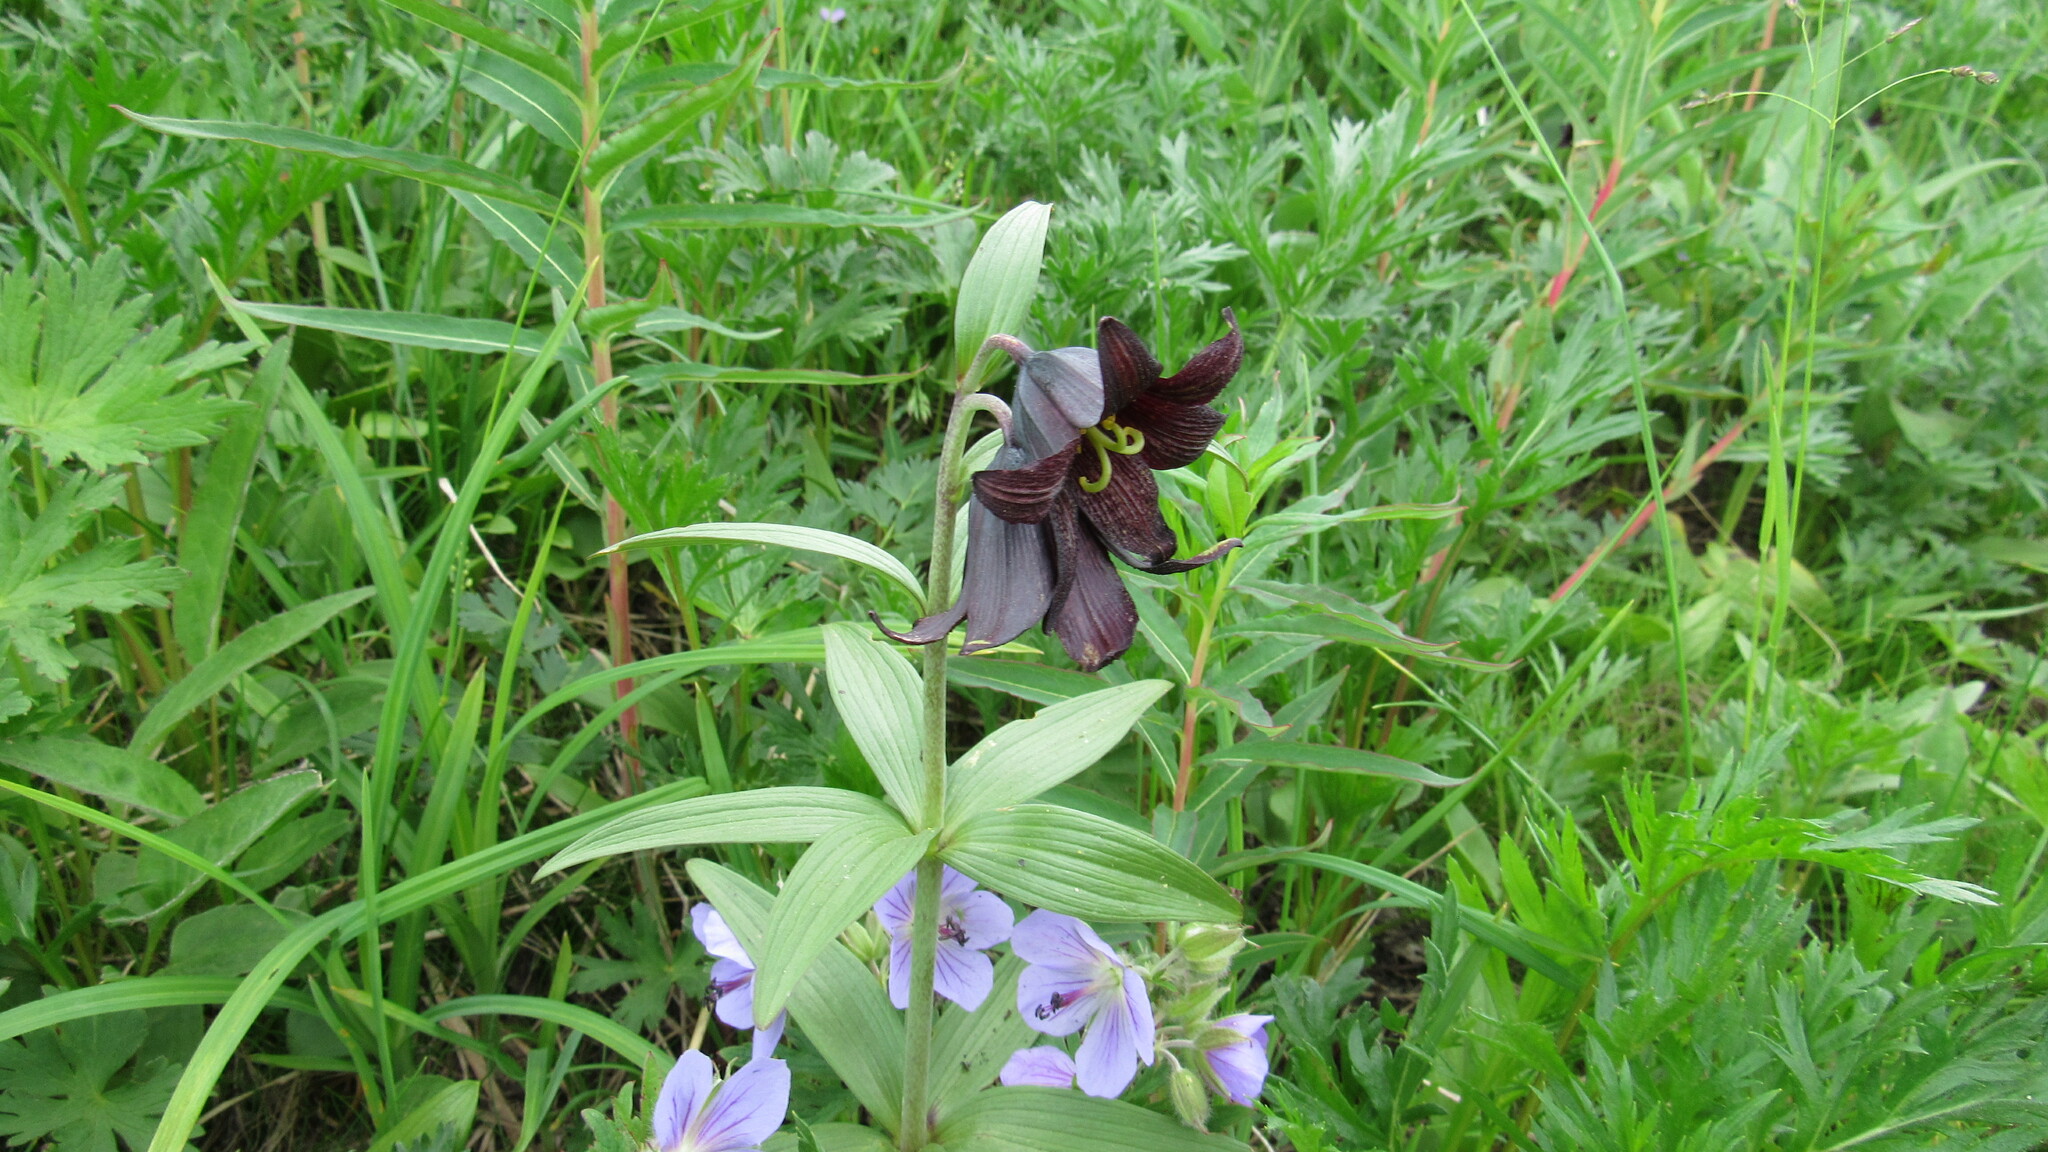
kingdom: Plantae
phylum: Tracheophyta
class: Liliopsida
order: Liliales
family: Liliaceae
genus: Fritillaria
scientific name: Fritillaria camschatcensis
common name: Kamchatka fritillary
